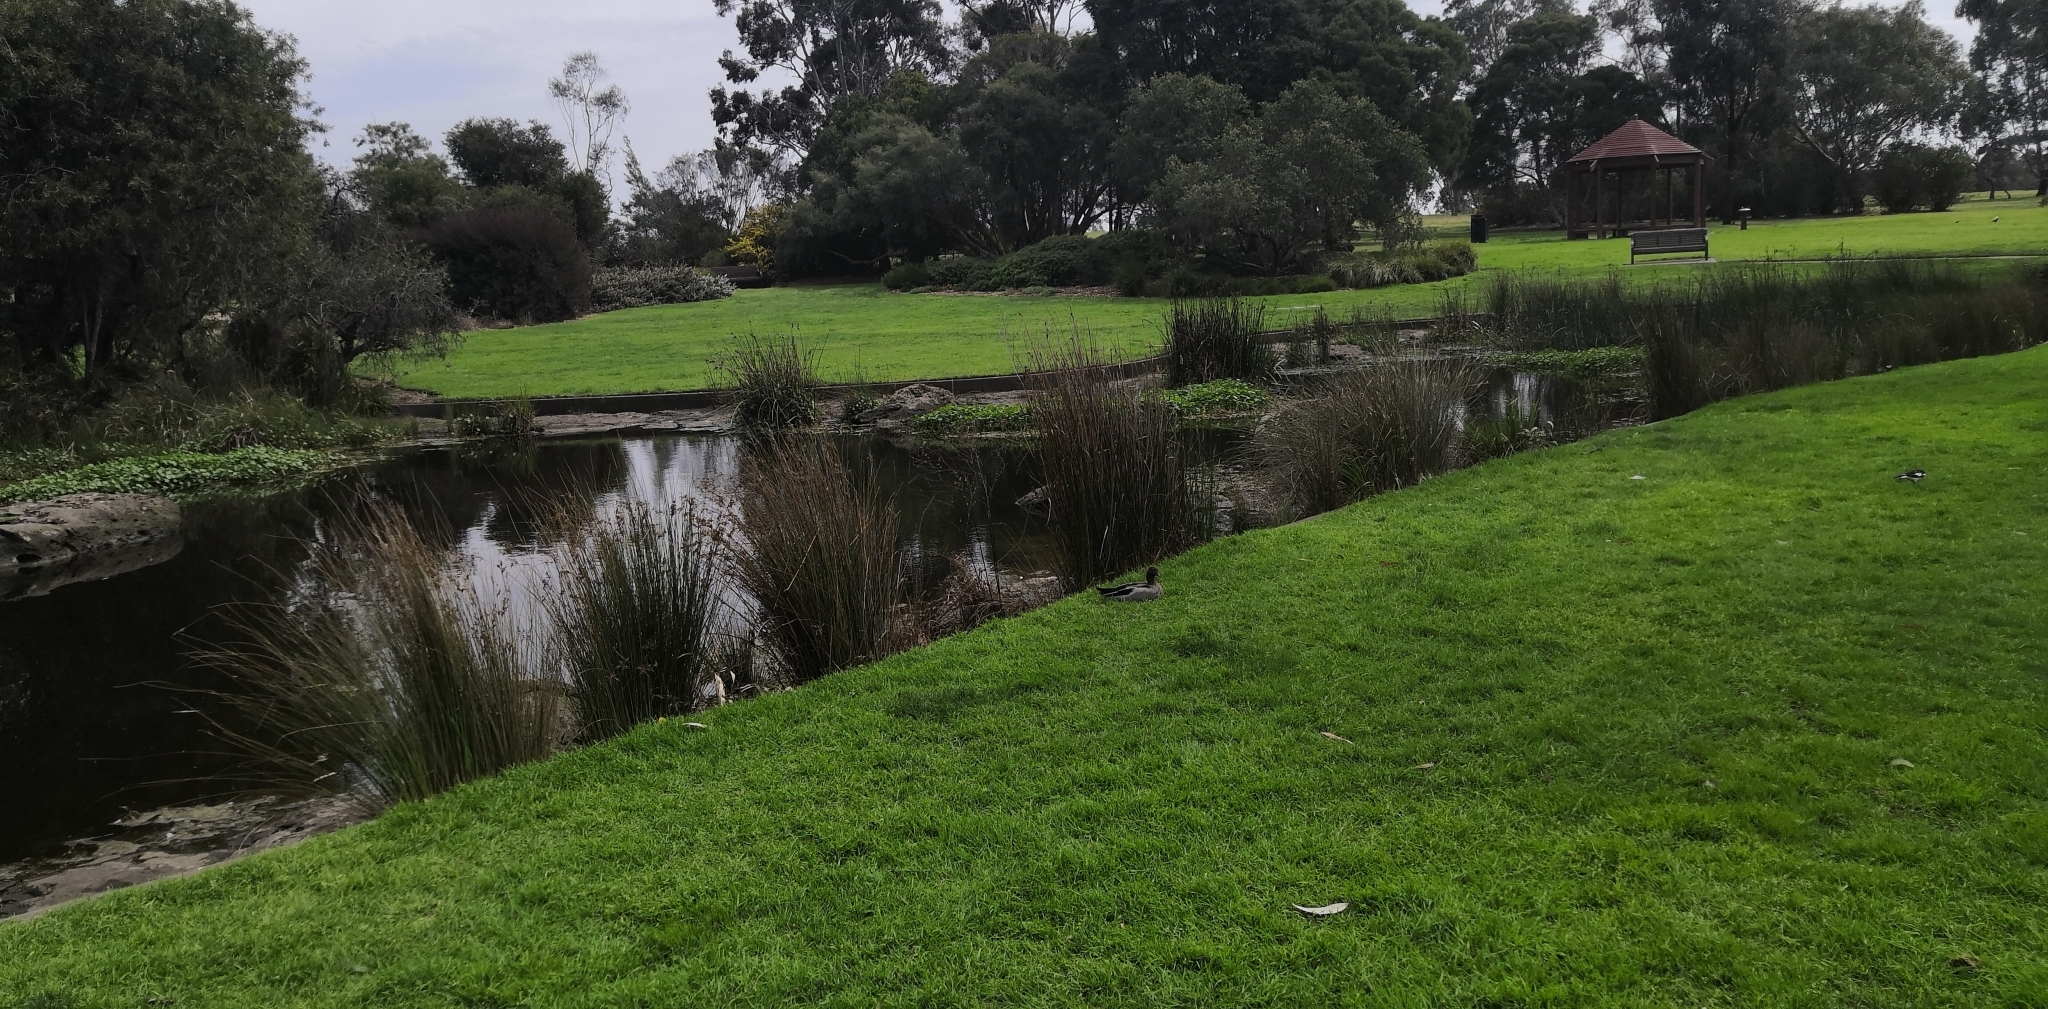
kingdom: Animalia
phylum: Chordata
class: Aves
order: Anseriformes
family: Anatidae
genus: Chenonetta
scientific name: Chenonetta jubata
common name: Maned duck
